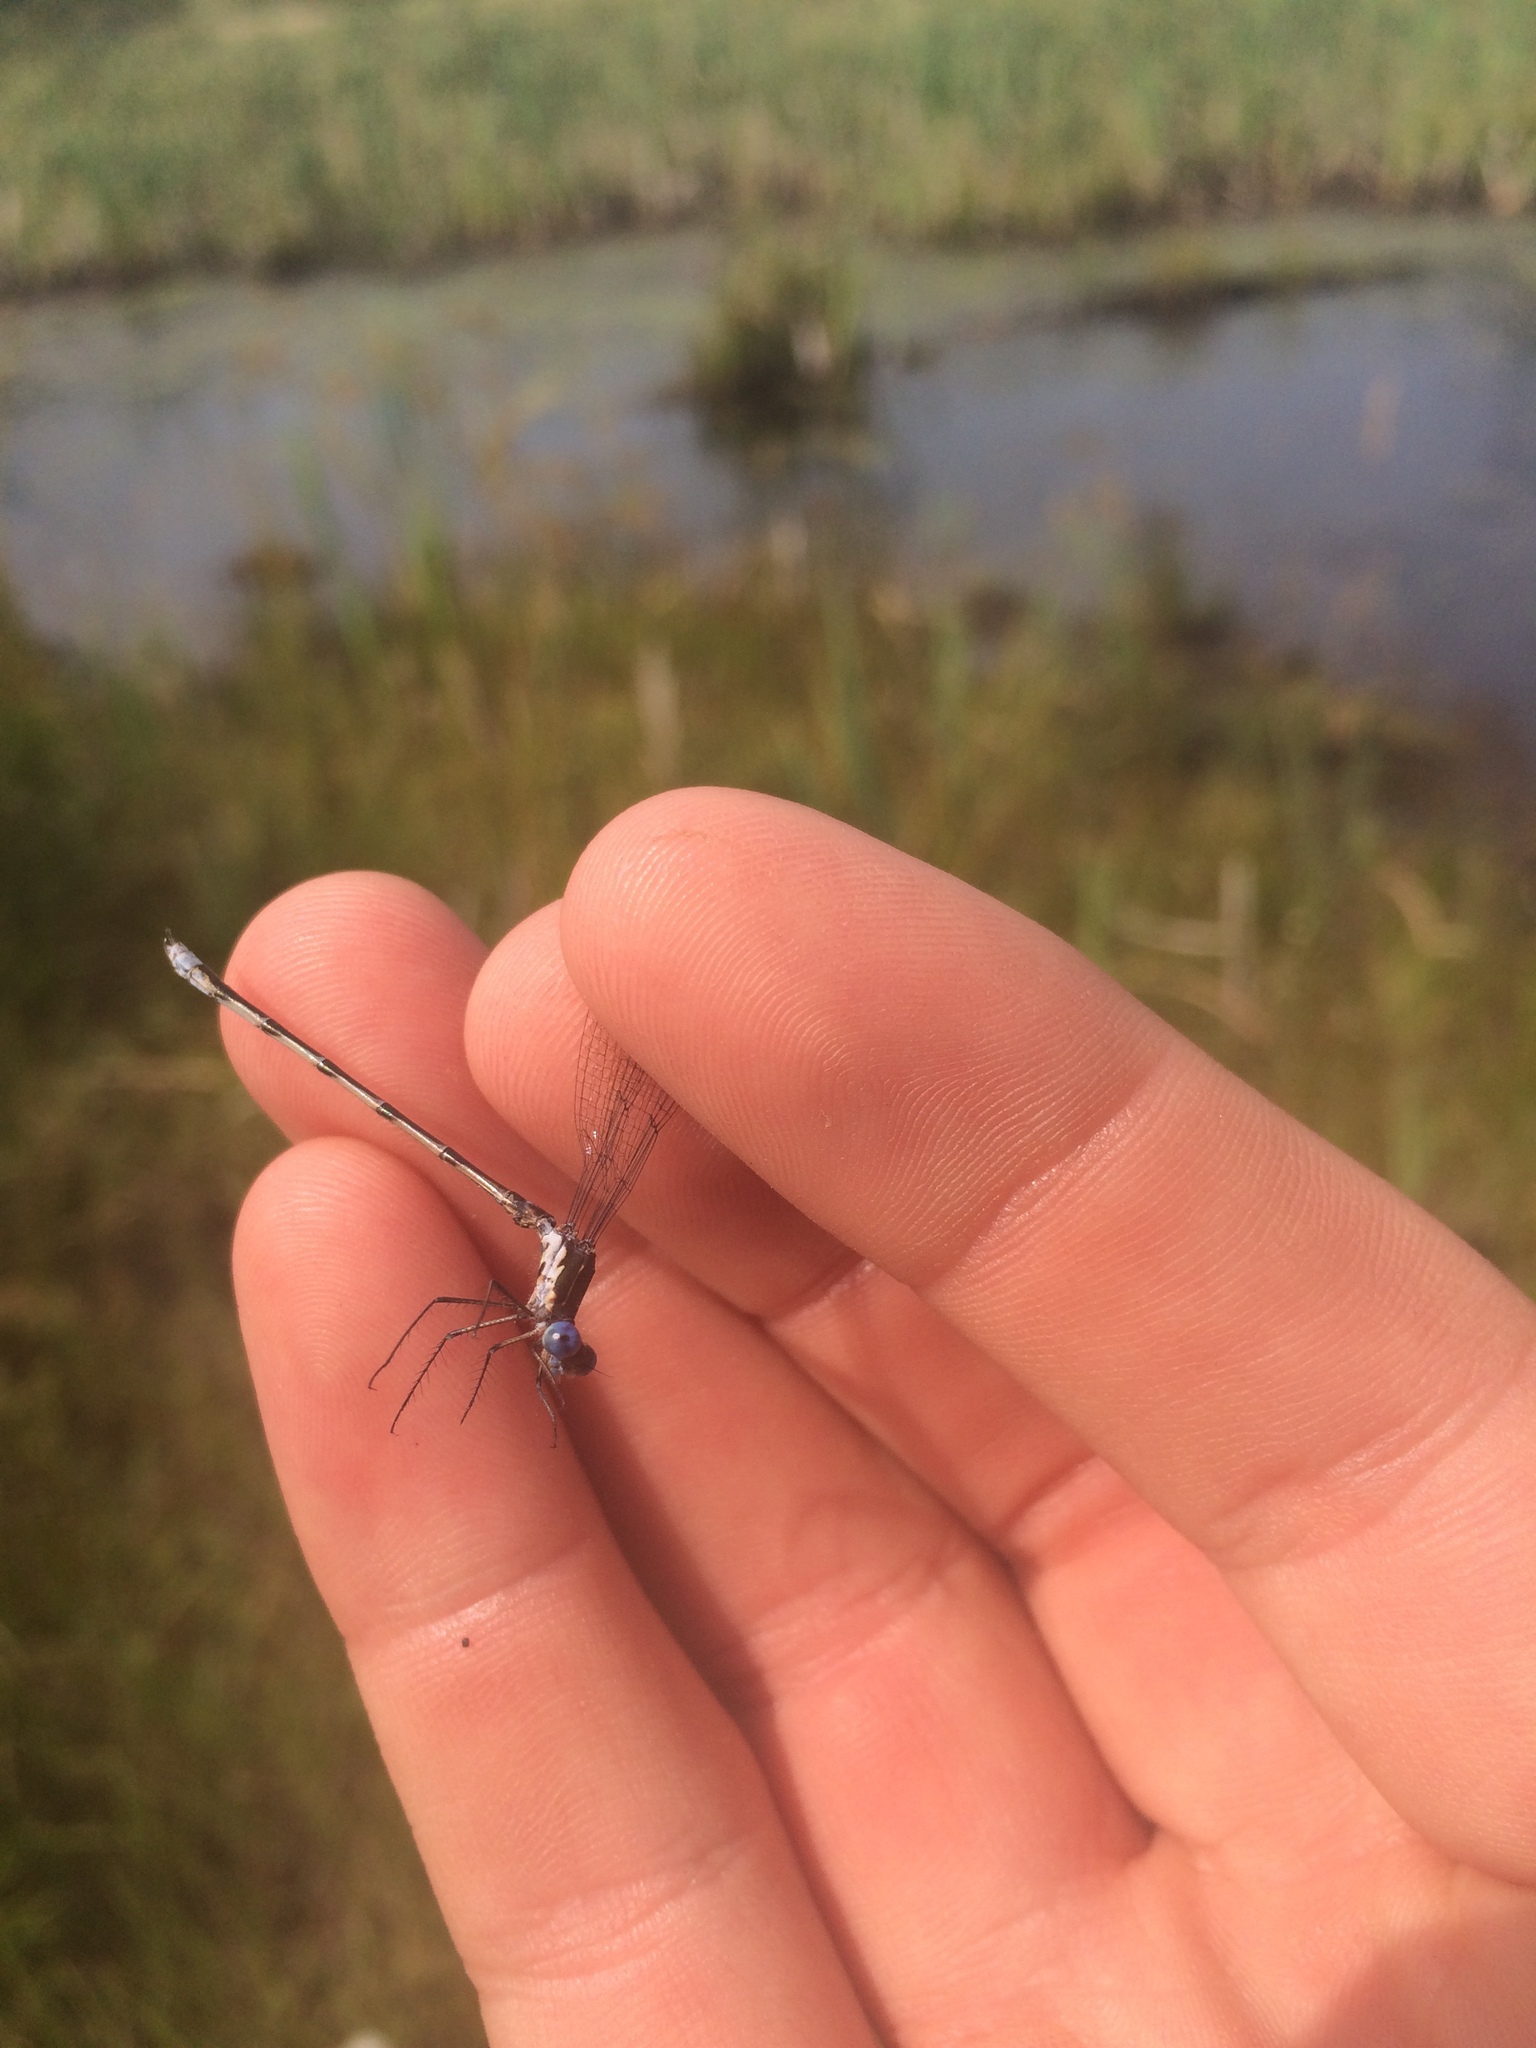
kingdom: Animalia
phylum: Arthropoda
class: Insecta
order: Odonata
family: Lestidae
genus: Lestes
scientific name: Lestes congener
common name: Spotted spreadwing
